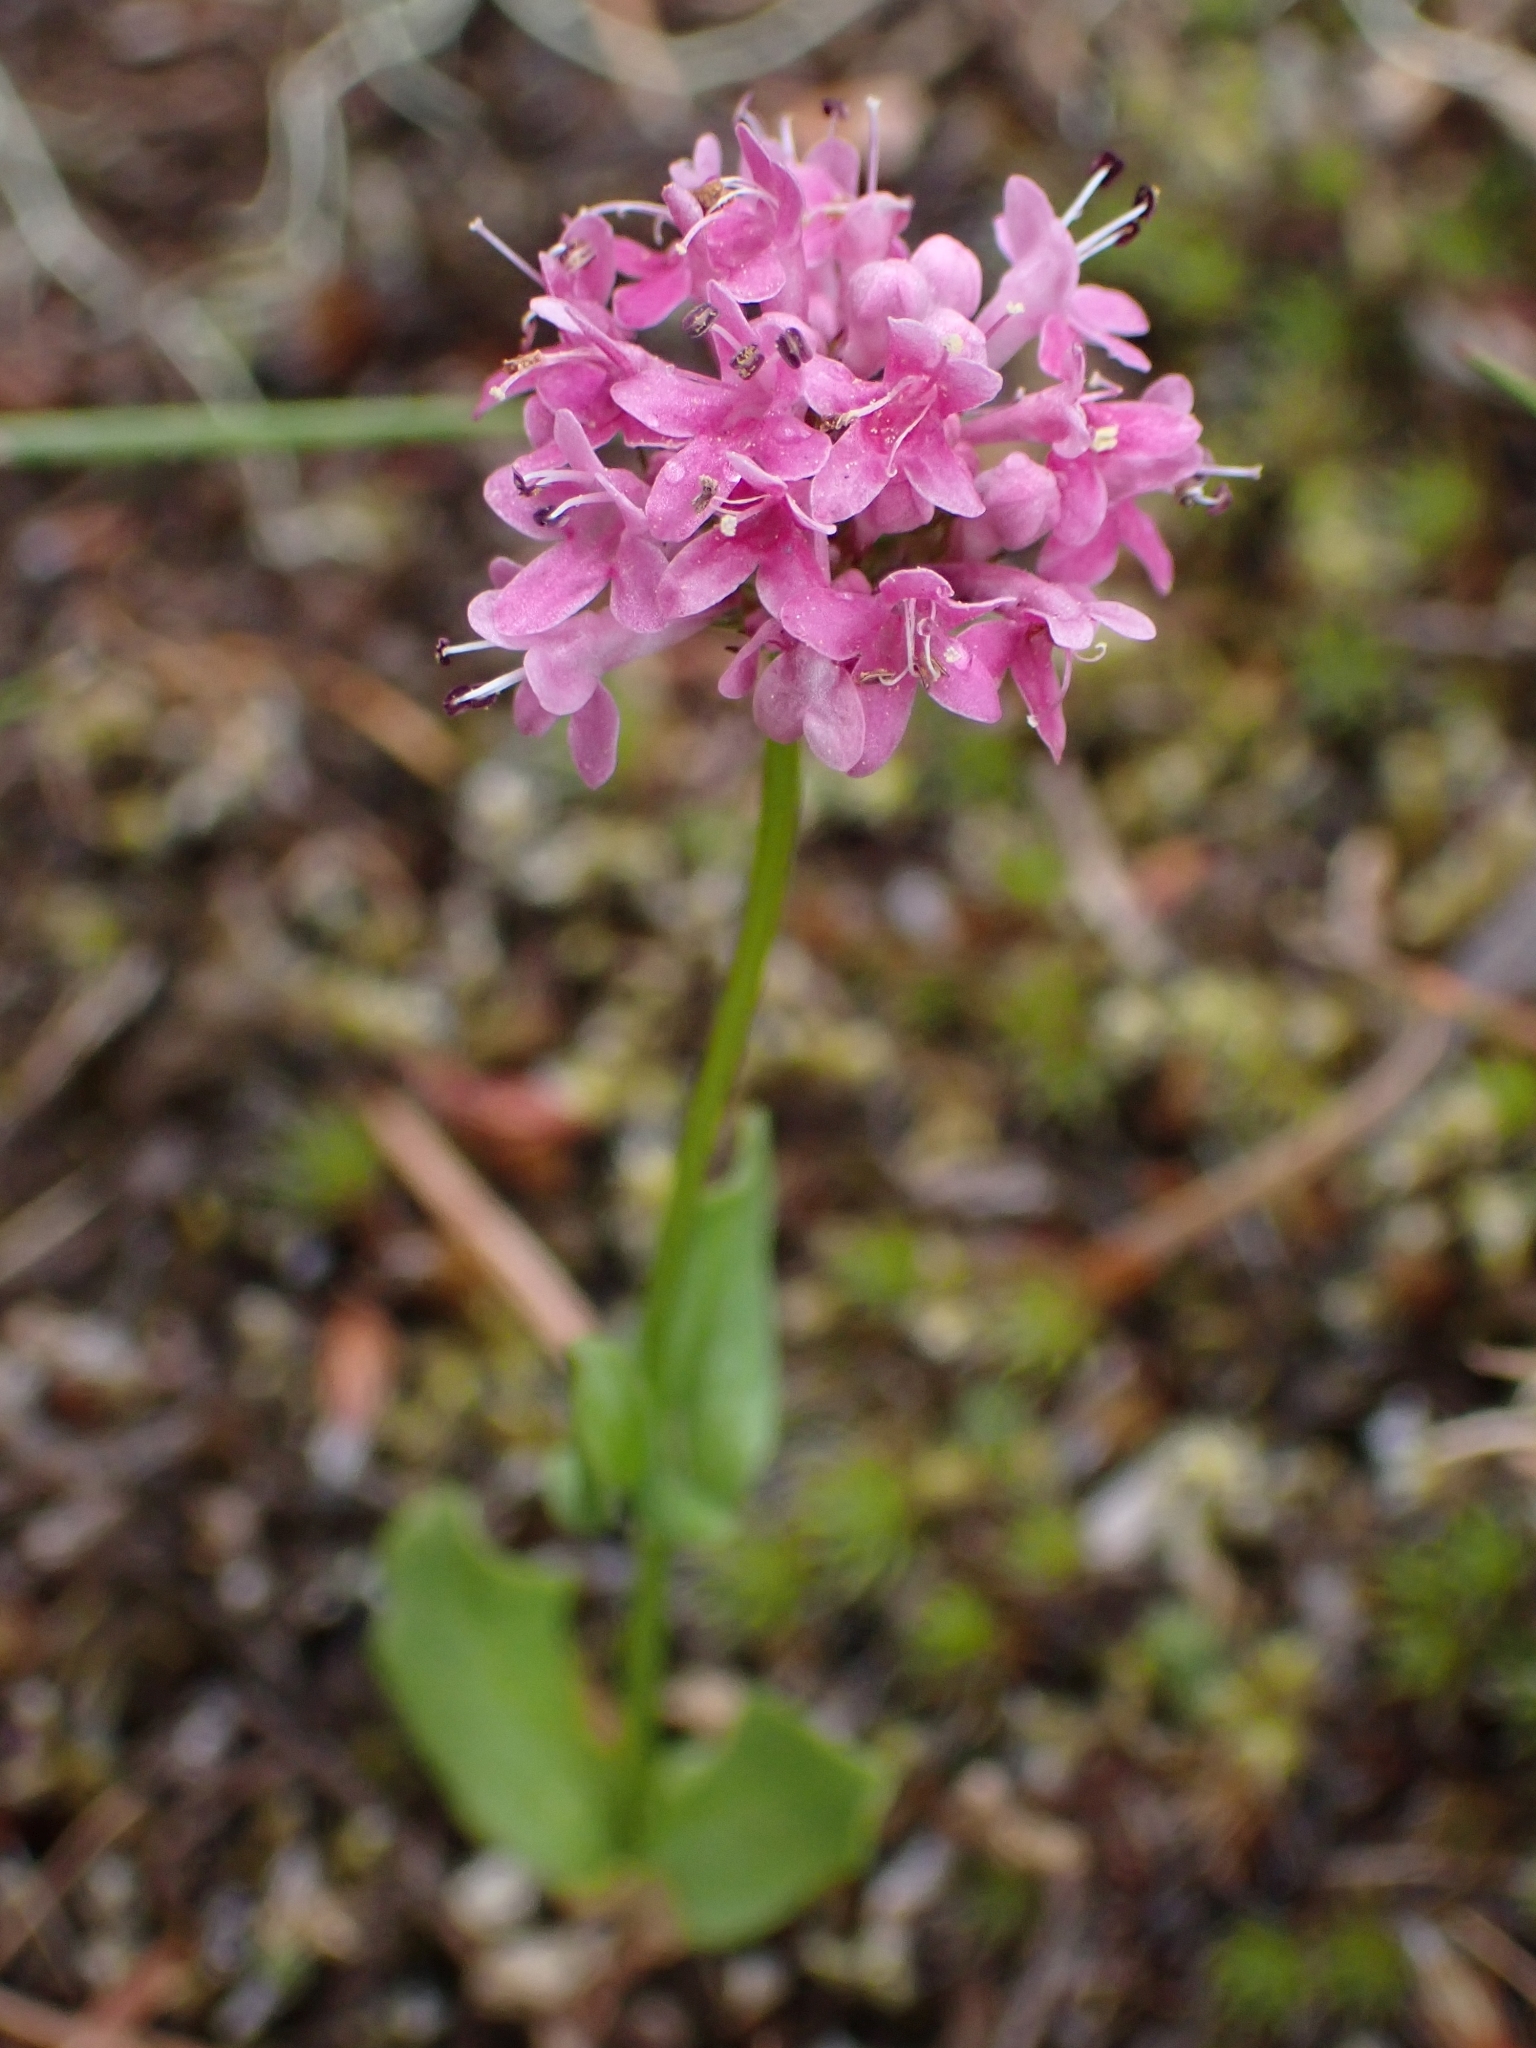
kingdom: Plantae
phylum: Tracheophyta
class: Magnoliopsida
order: Dipsacales
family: Caprifoliaceae
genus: Plectritis
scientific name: Plectritis congesta
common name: Pink plectritis
